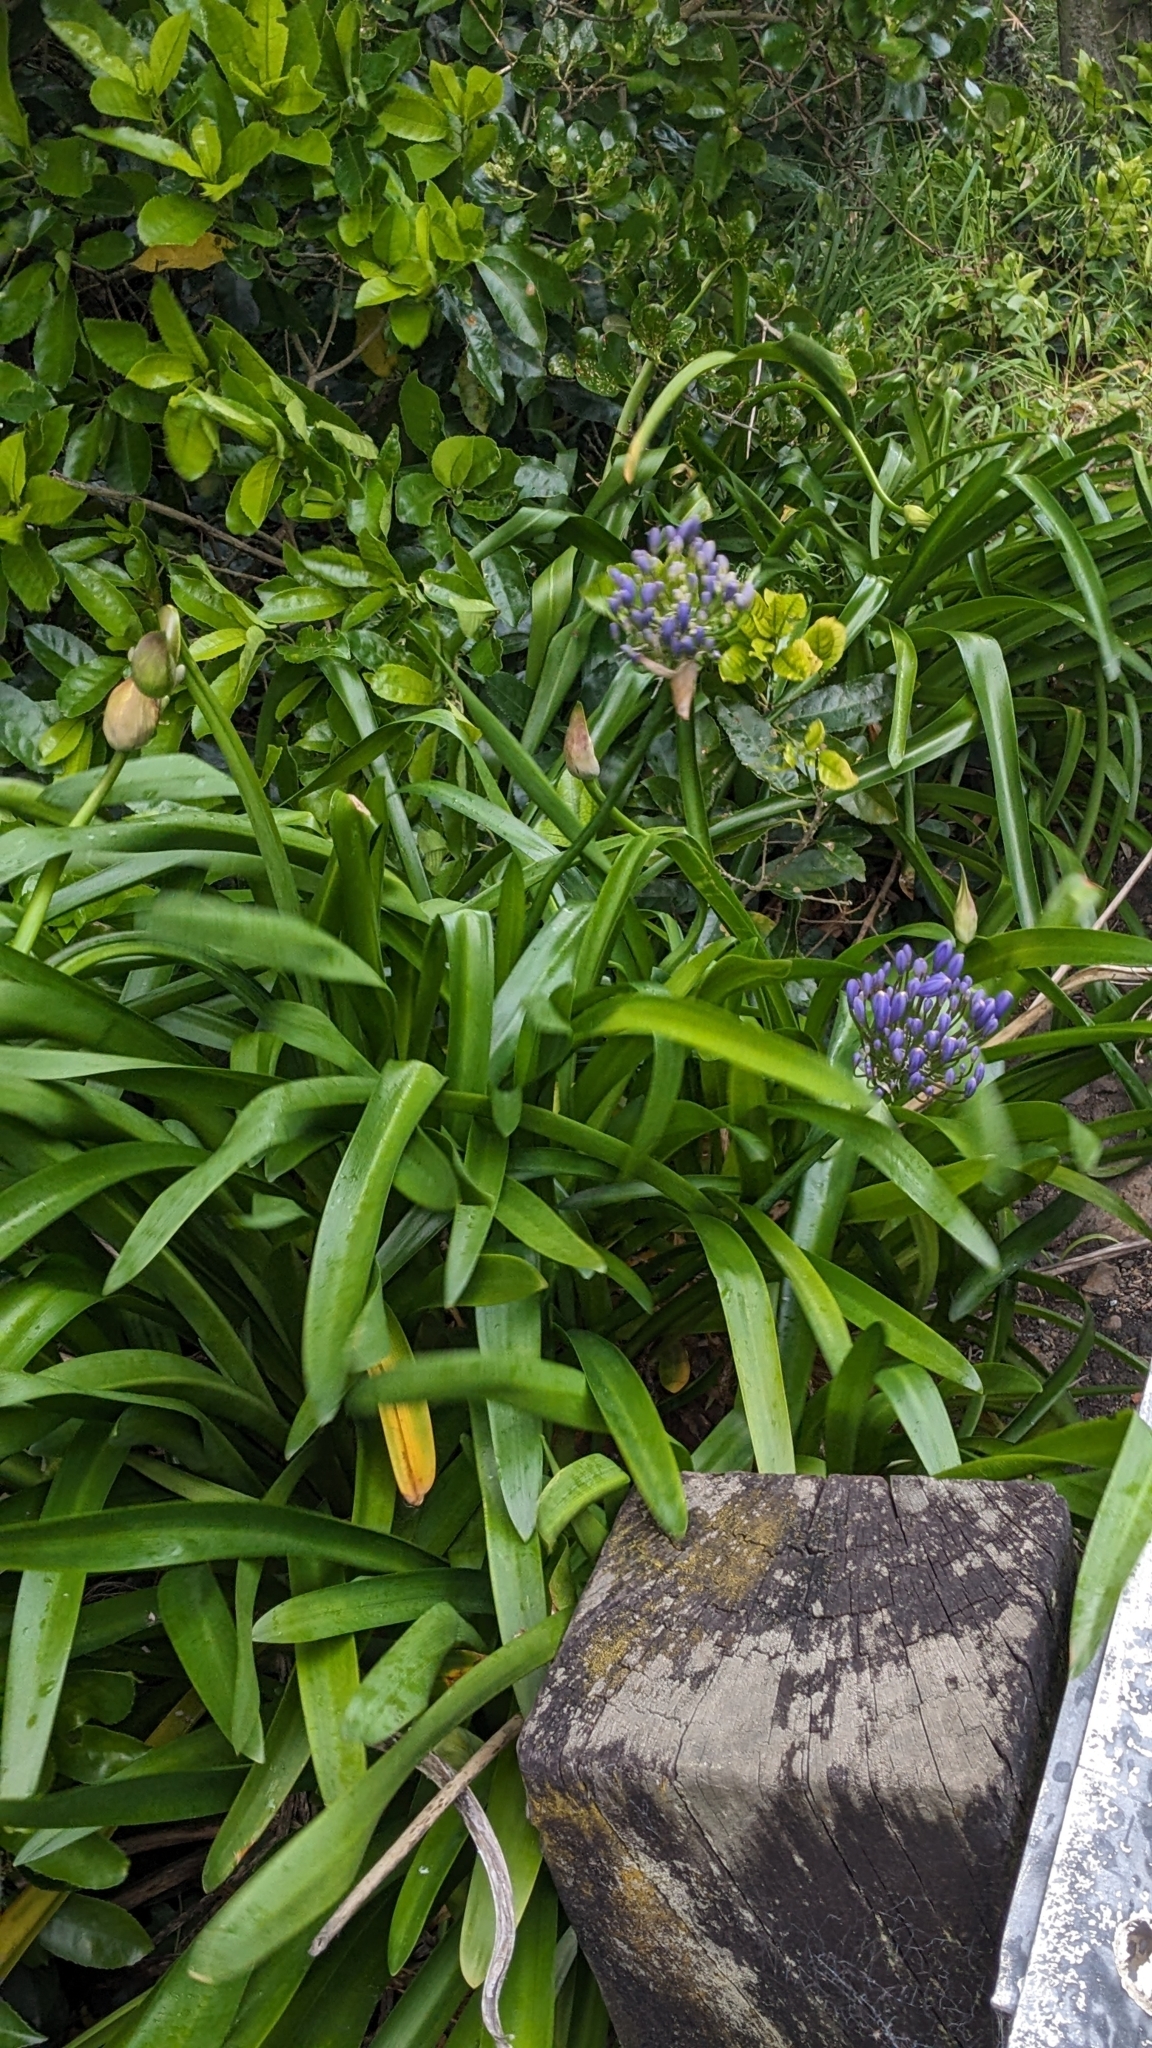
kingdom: Plantae
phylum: Tracheophyta
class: Liliopsida
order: Asparagales
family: Amaryllidaceae
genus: Agapanthus
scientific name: Agapanthus praecox
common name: African-lily
